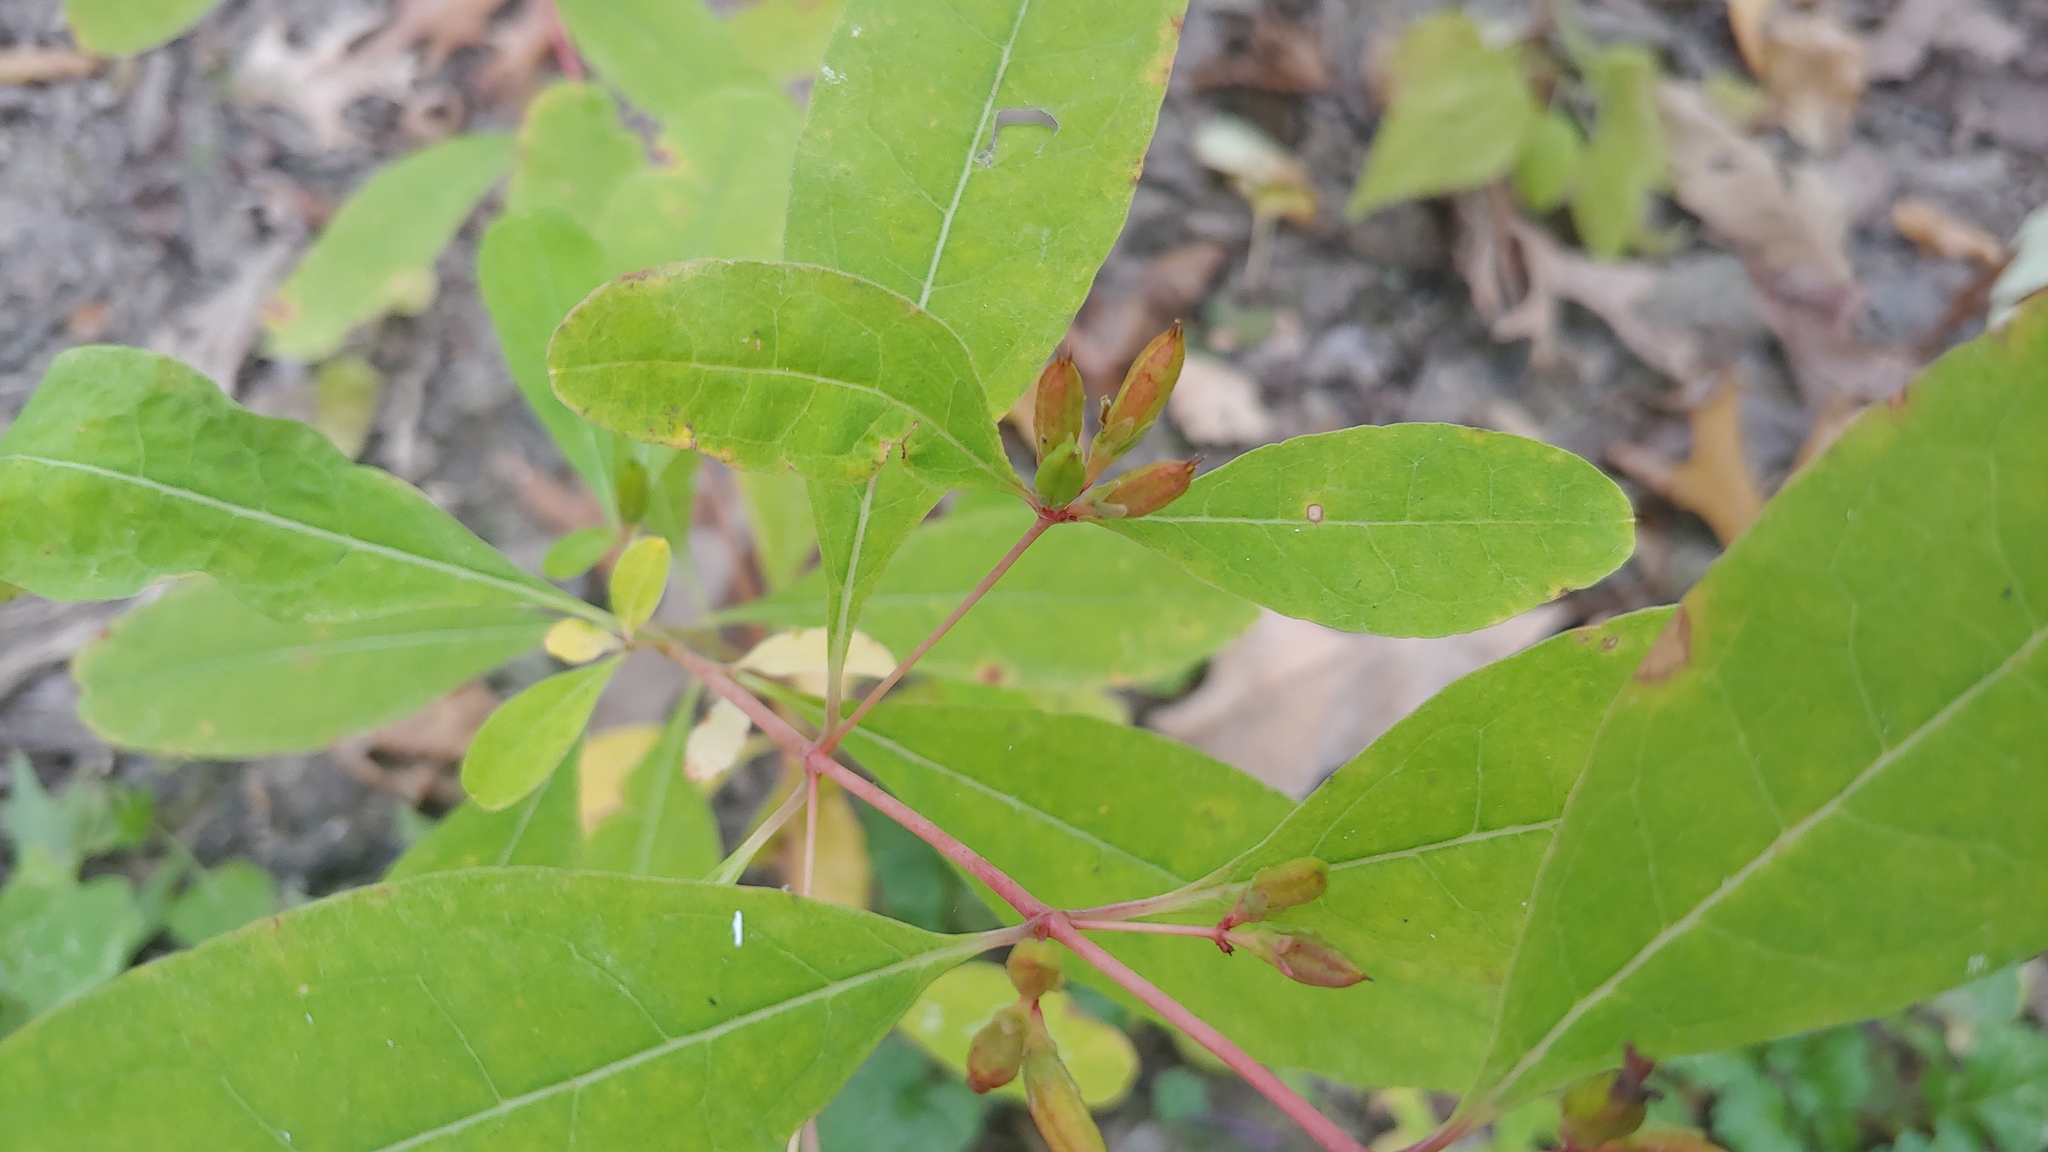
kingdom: Plantae
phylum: Tracheophyta
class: Magnoliopsida
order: Malpighiales
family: Hypericaceae
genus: Triadenum
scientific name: Triadenum walteri
